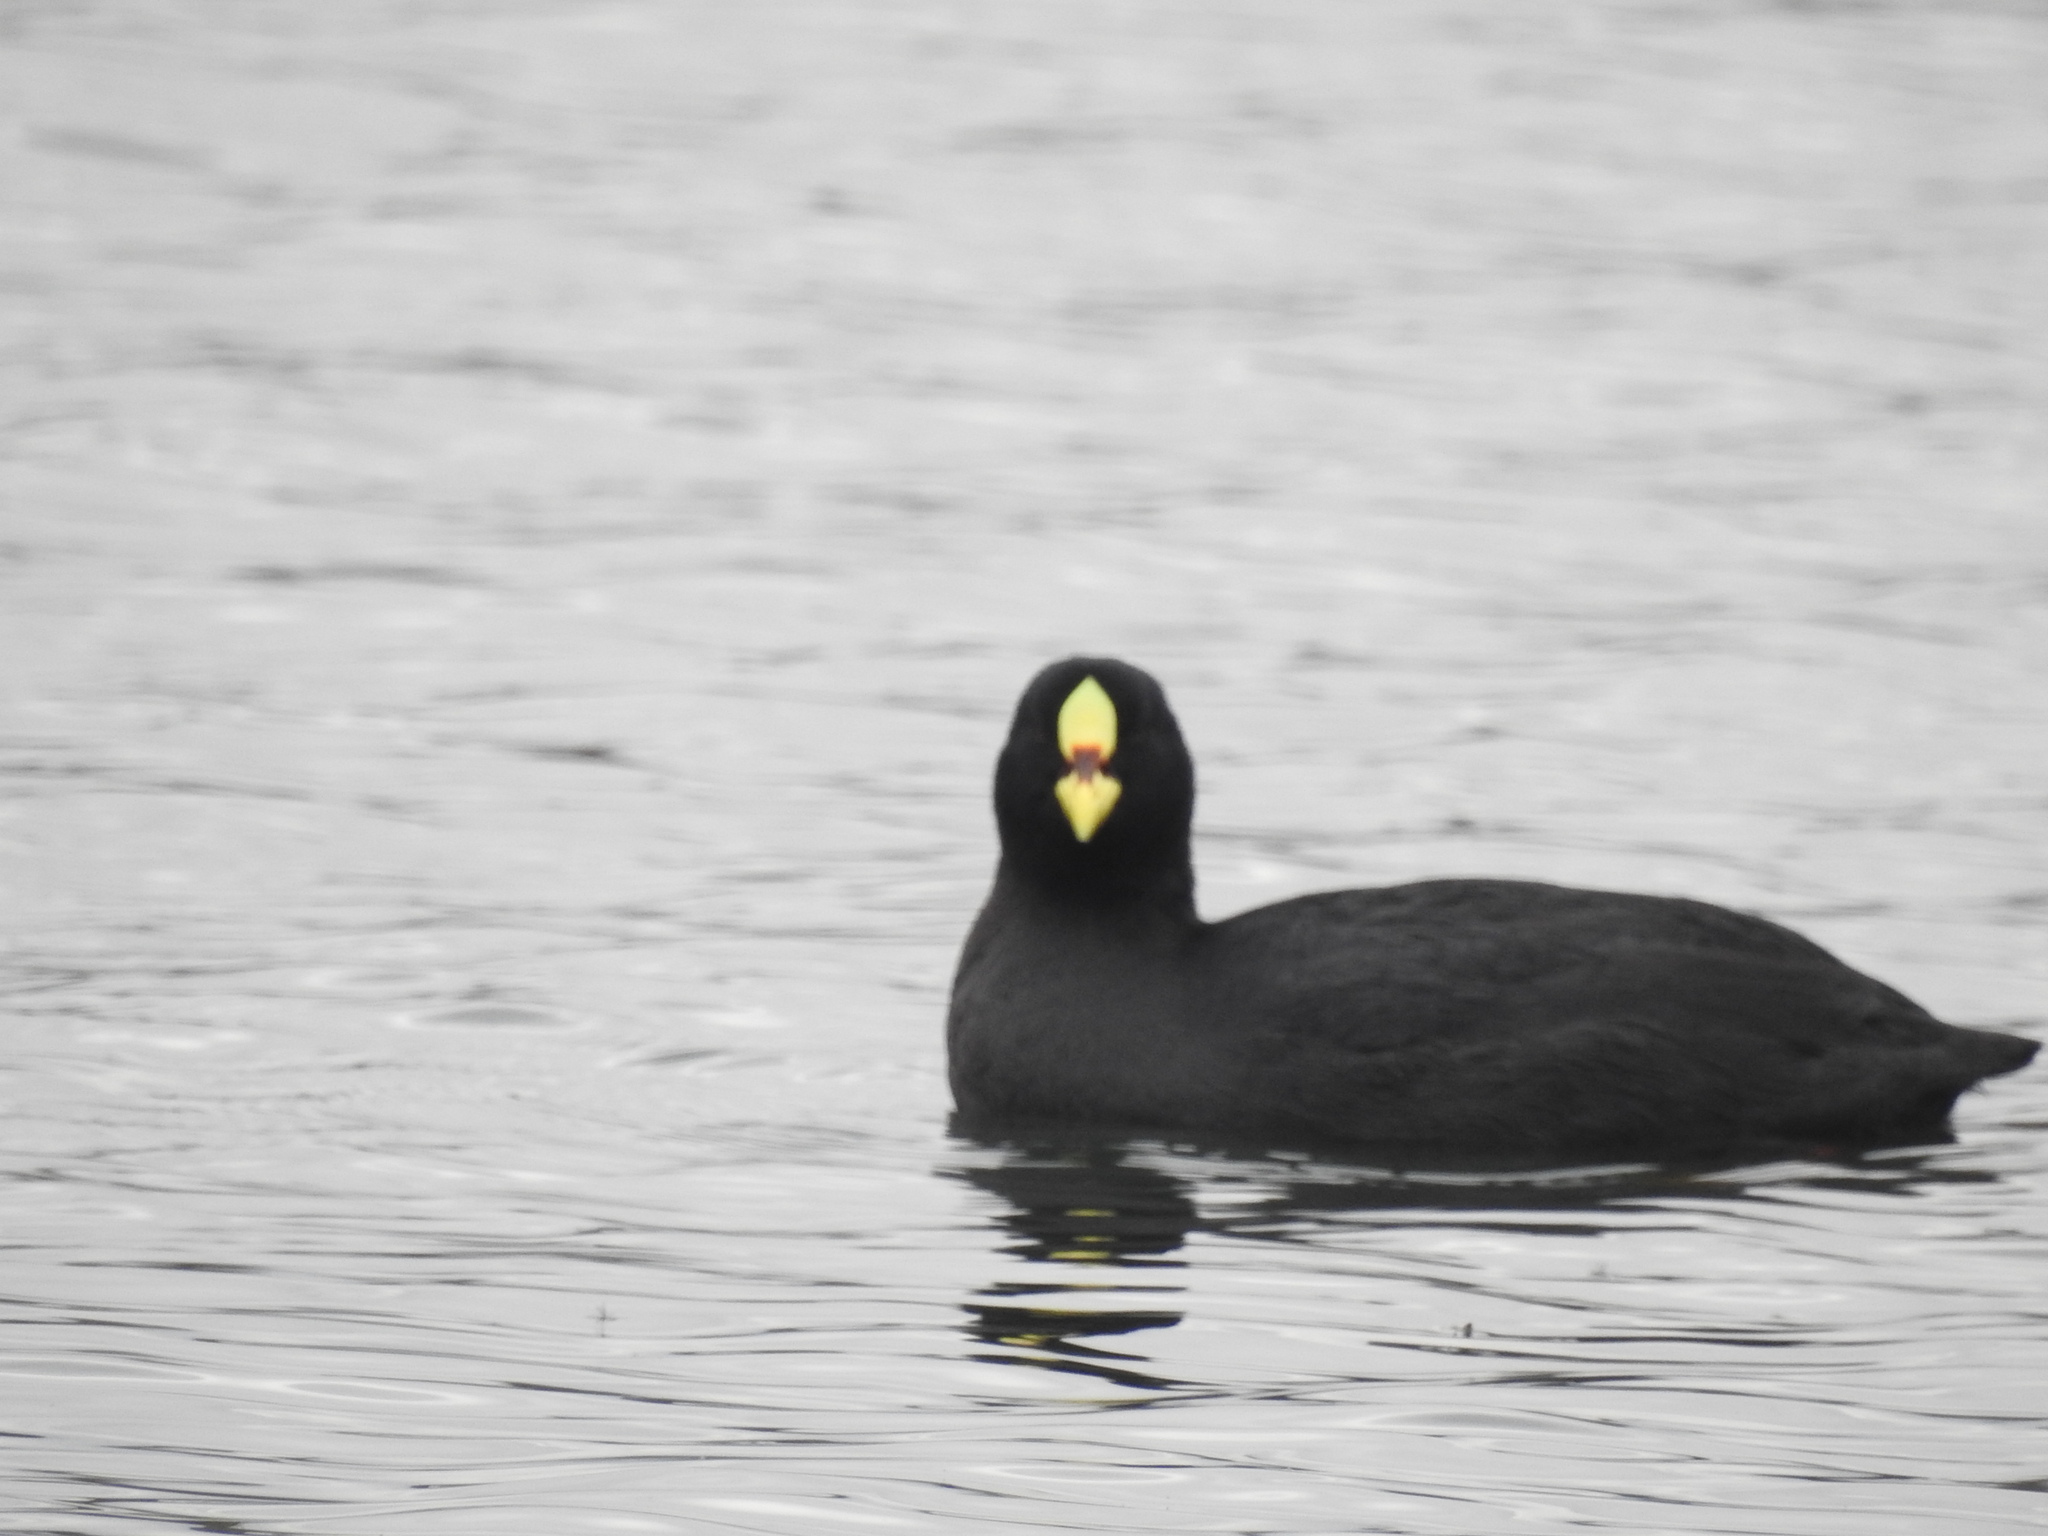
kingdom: Animalia
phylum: Chordata
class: Aves
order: Gruiformes
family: Rallidae
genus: Fulica
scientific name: Fulica armillata
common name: Red-gartered coot
